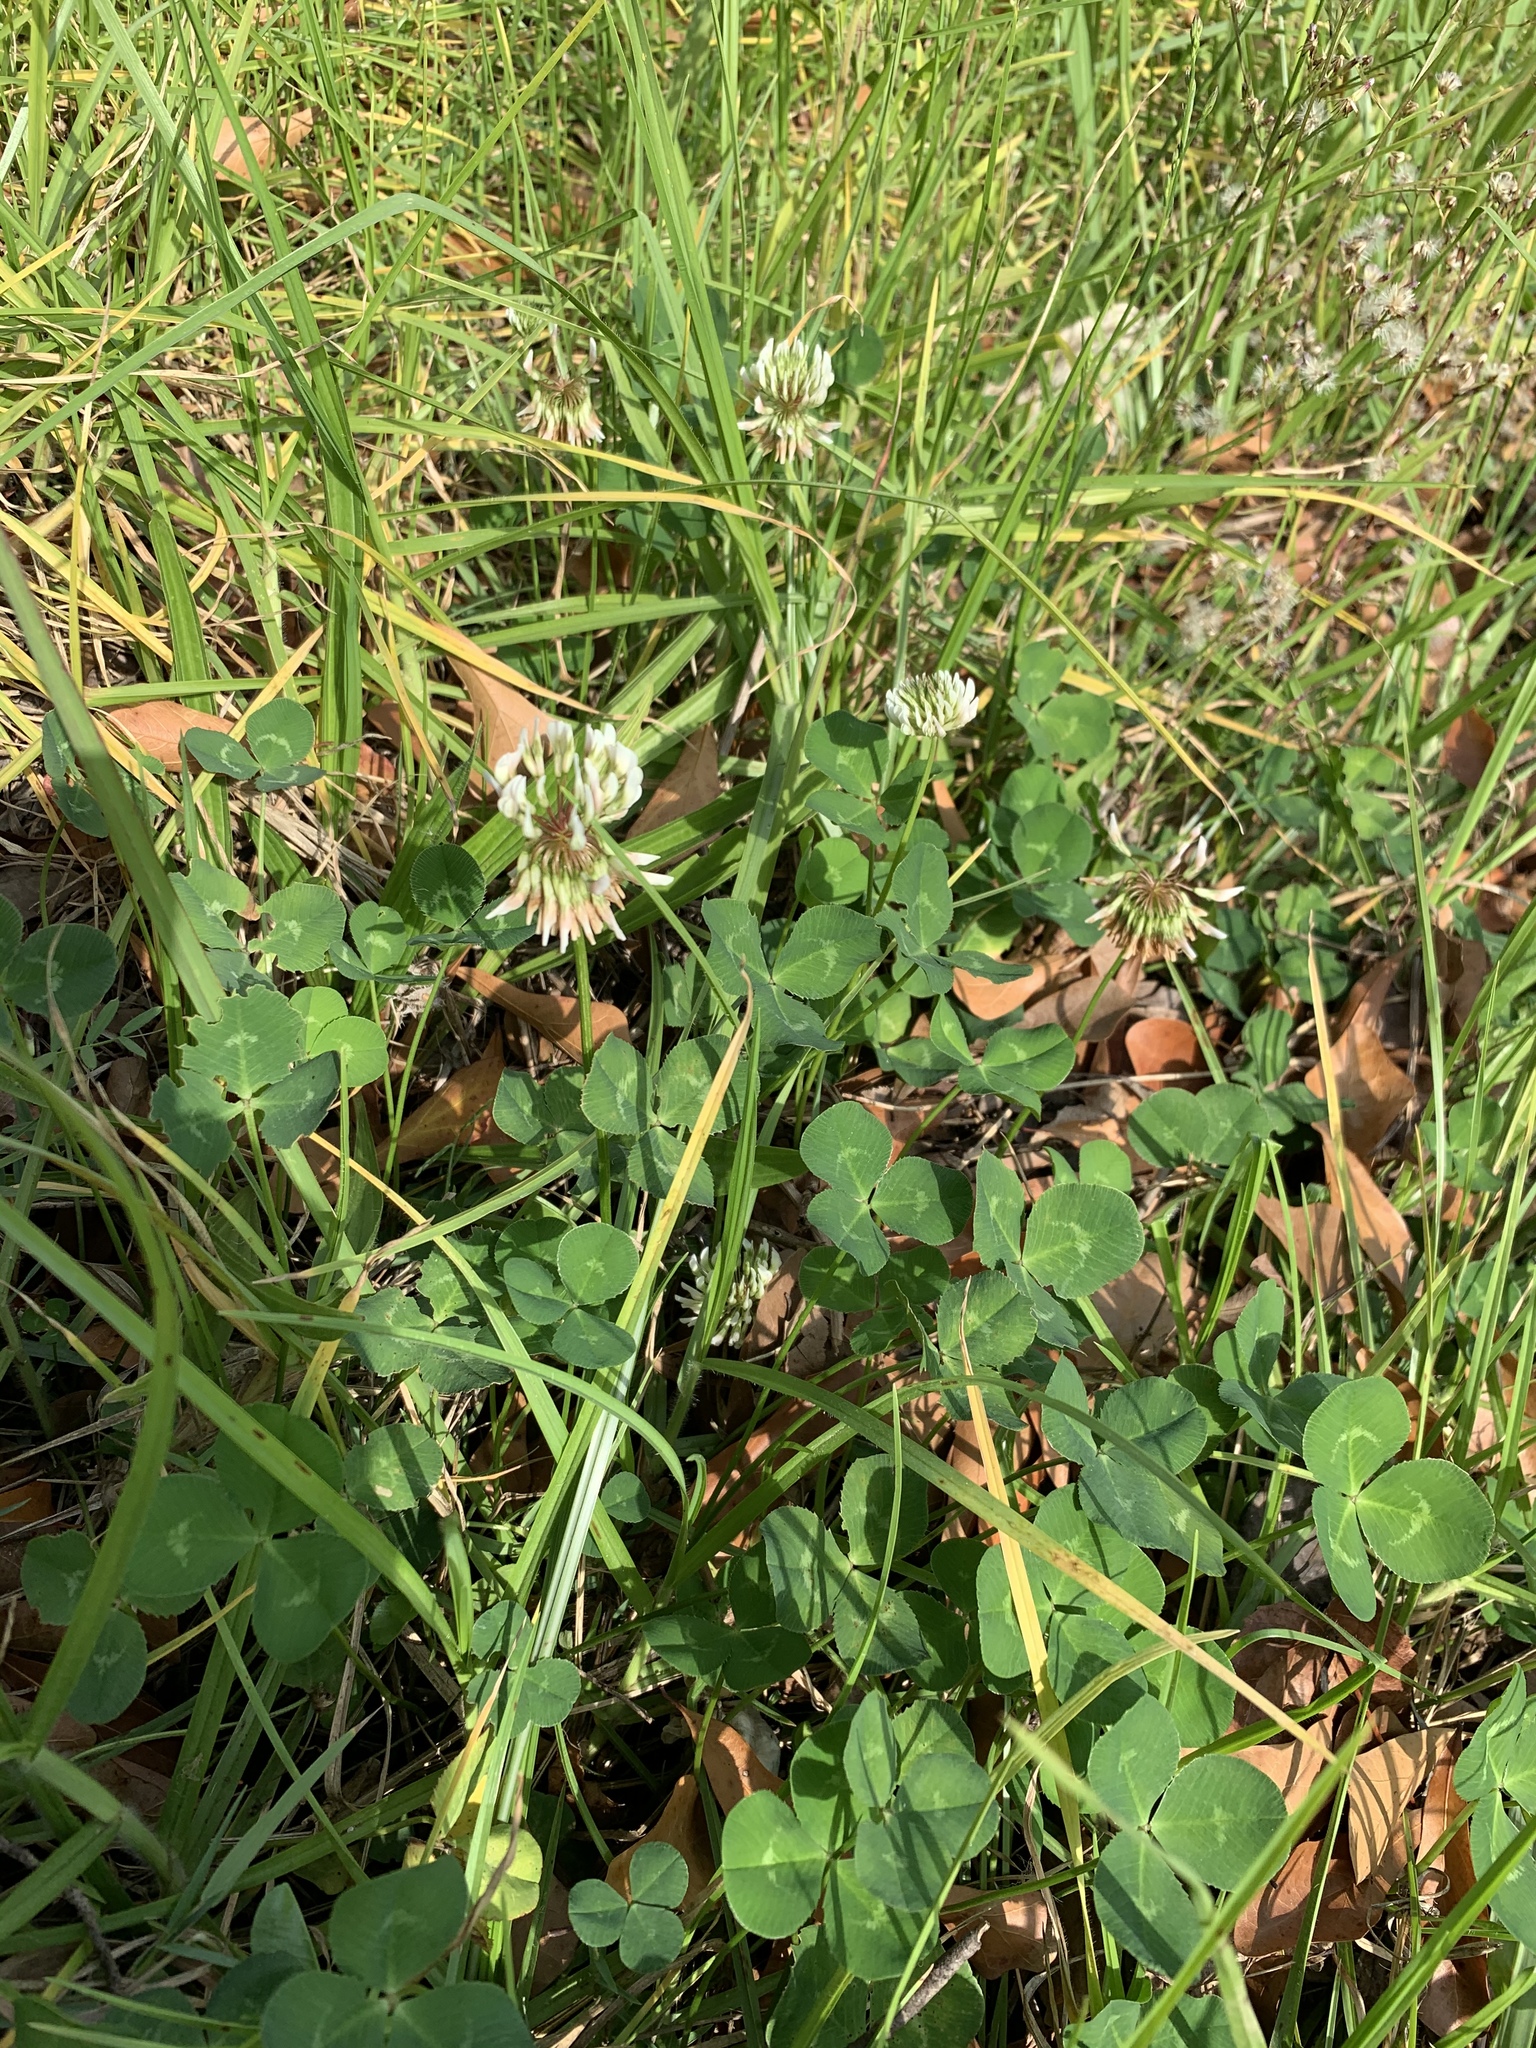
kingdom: Plantae
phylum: Tracheophyta
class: Magnoliopsida
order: Fabales
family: Fabaceae
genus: Trifolium
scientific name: Trifolium repens
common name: White clover
